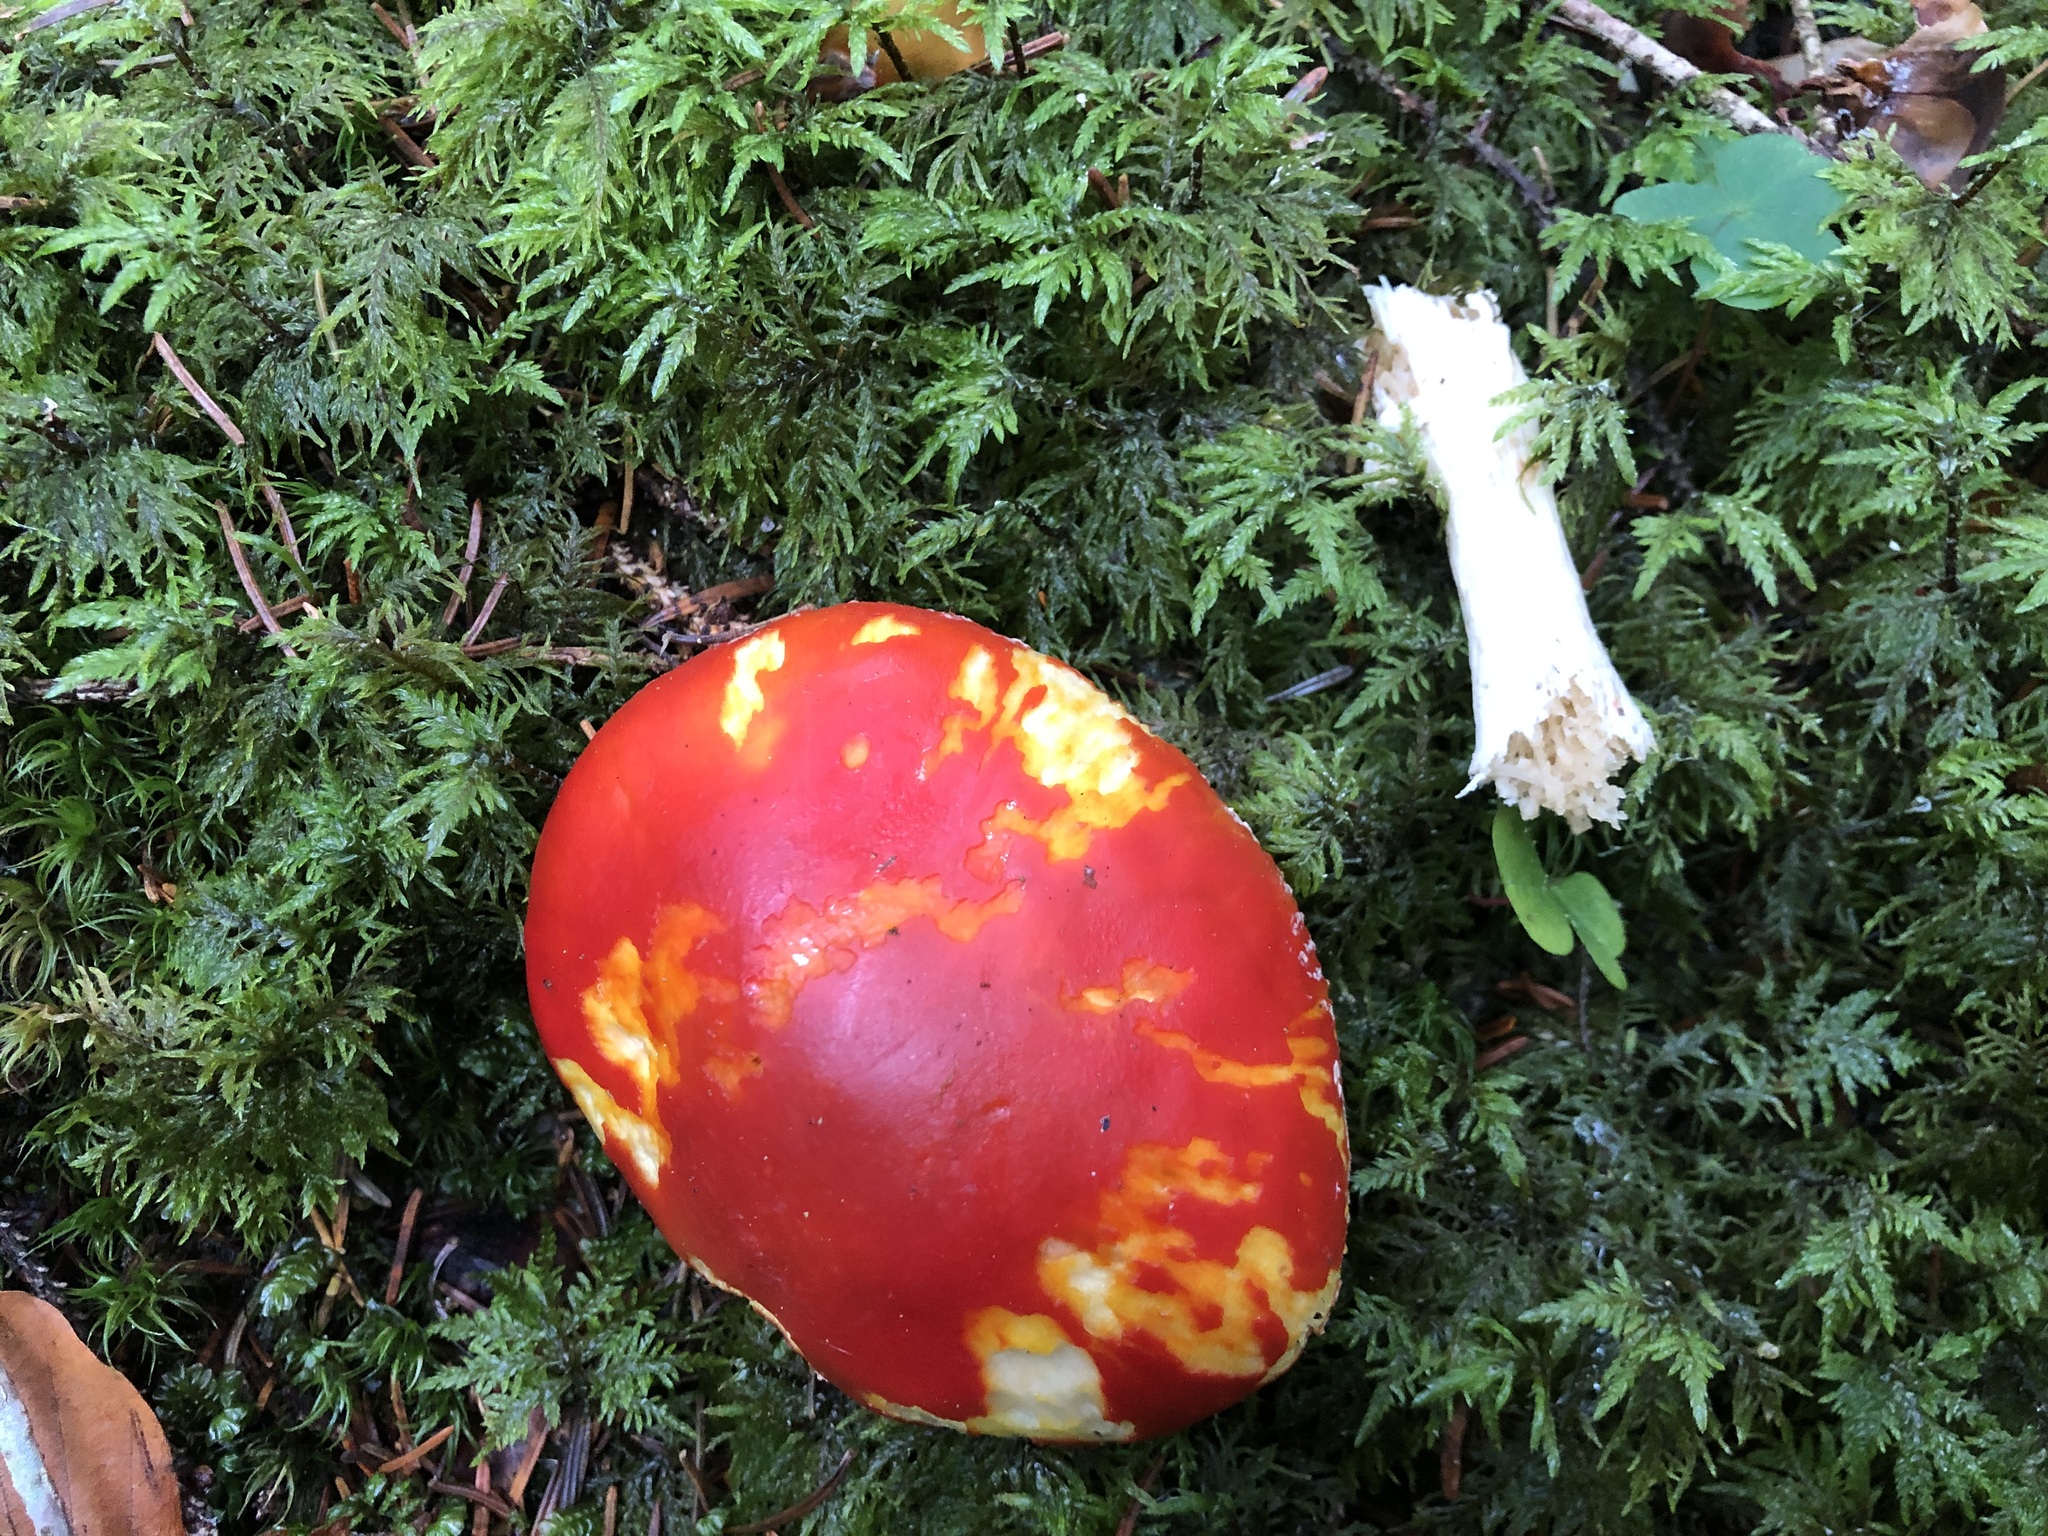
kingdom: Fungi
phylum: Basidiomycota
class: Agaricomycetes
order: Agaricales
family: Amanitaceae
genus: Amanita
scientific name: Amanita muscaria
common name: Fly agaric
